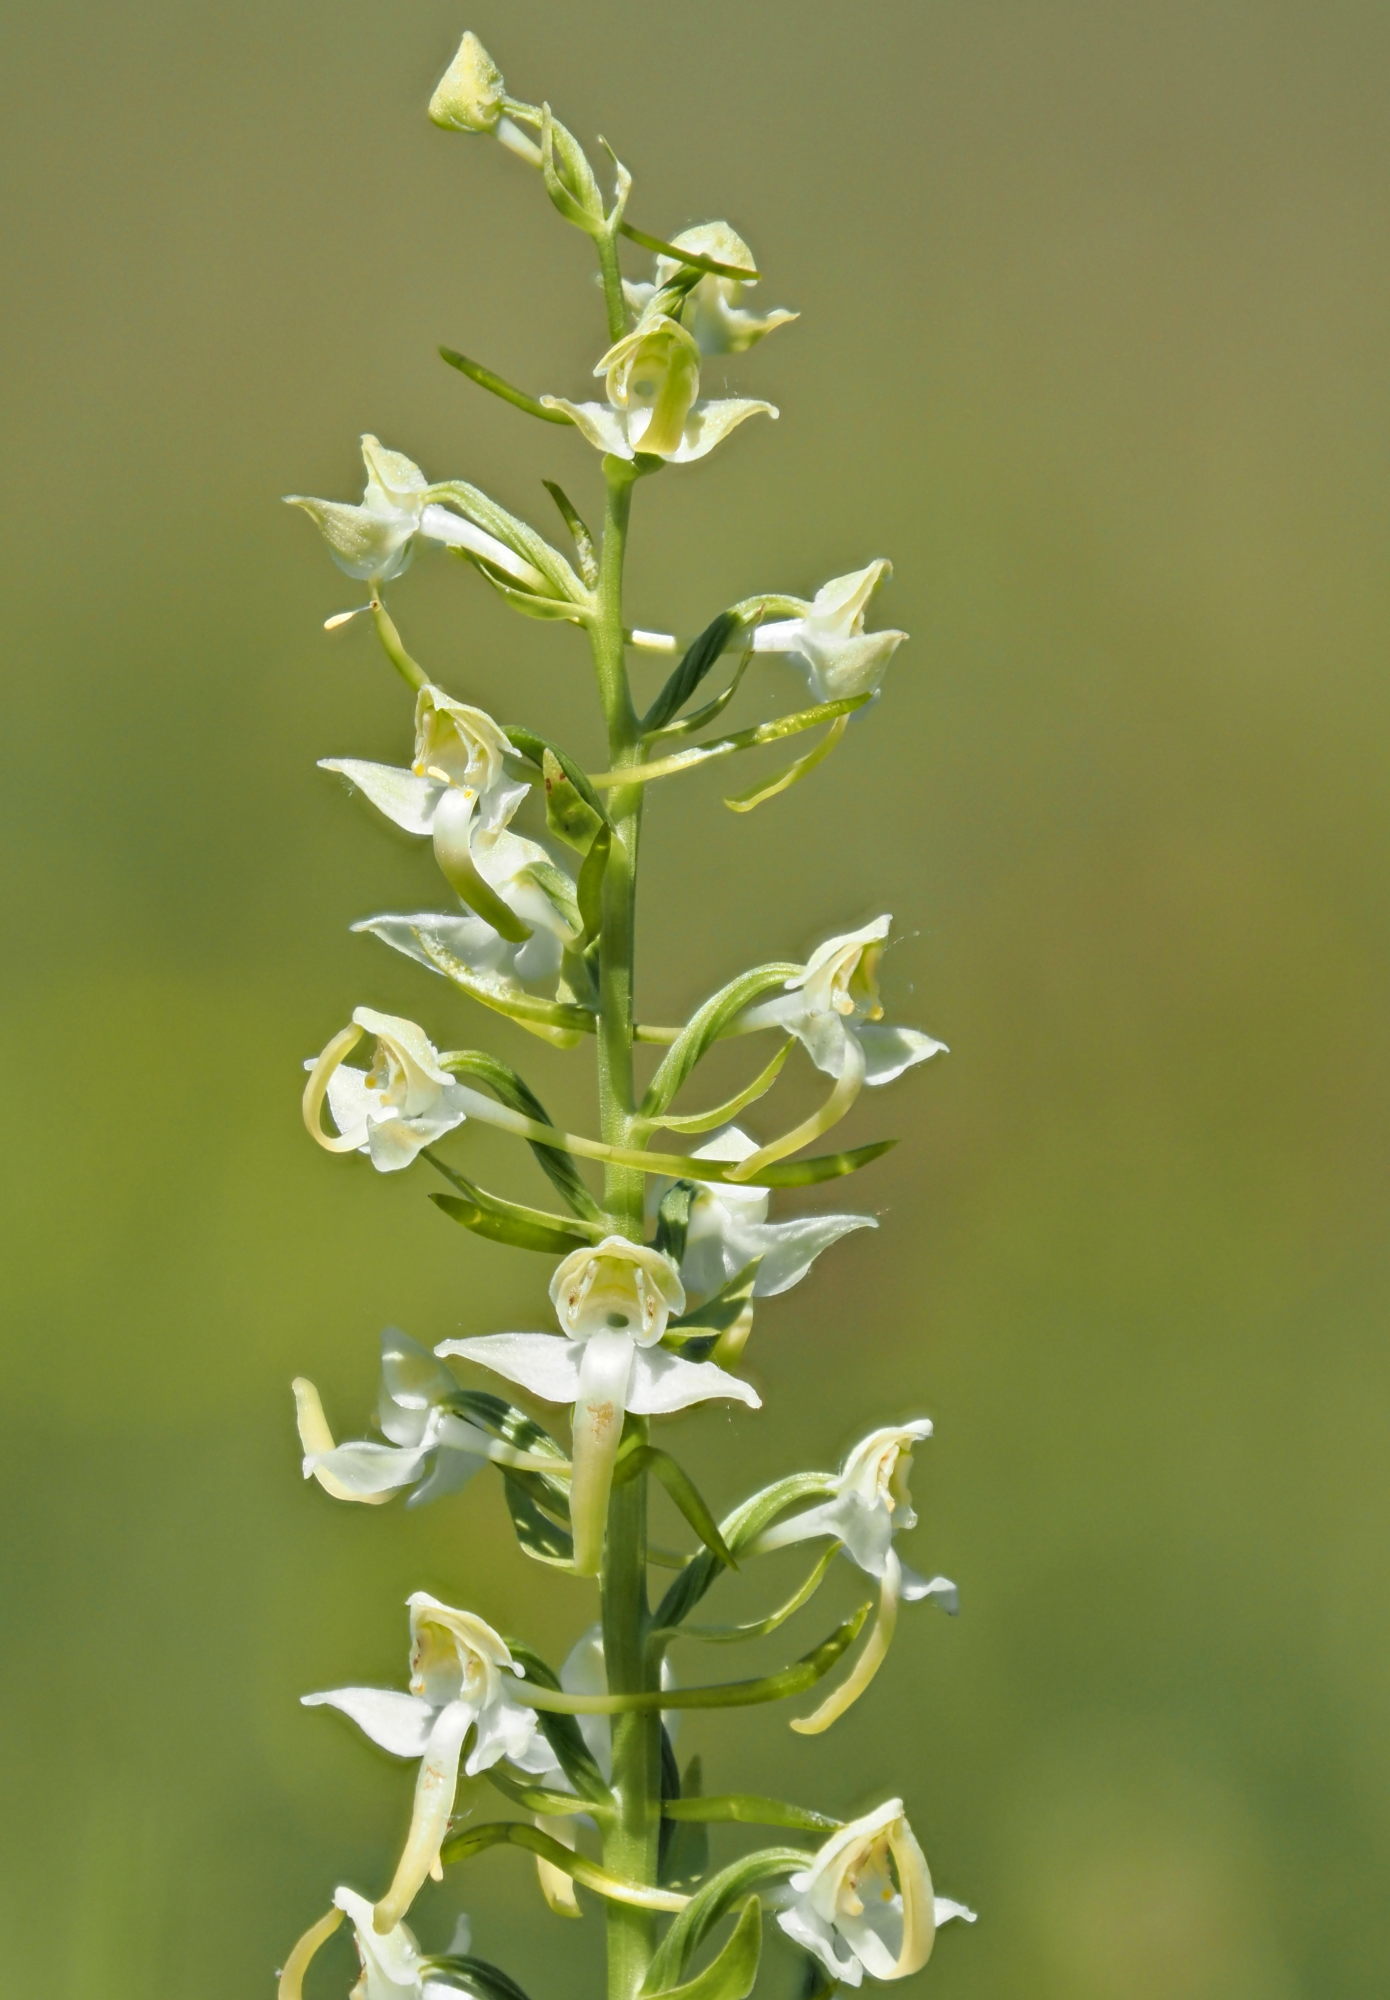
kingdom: Plantae
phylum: Tracheophyta
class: Liliopsida
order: Asparagales
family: Orchidaceae
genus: Platanthera
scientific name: Platanthera chlorantha
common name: Greater butterfly-orchid
